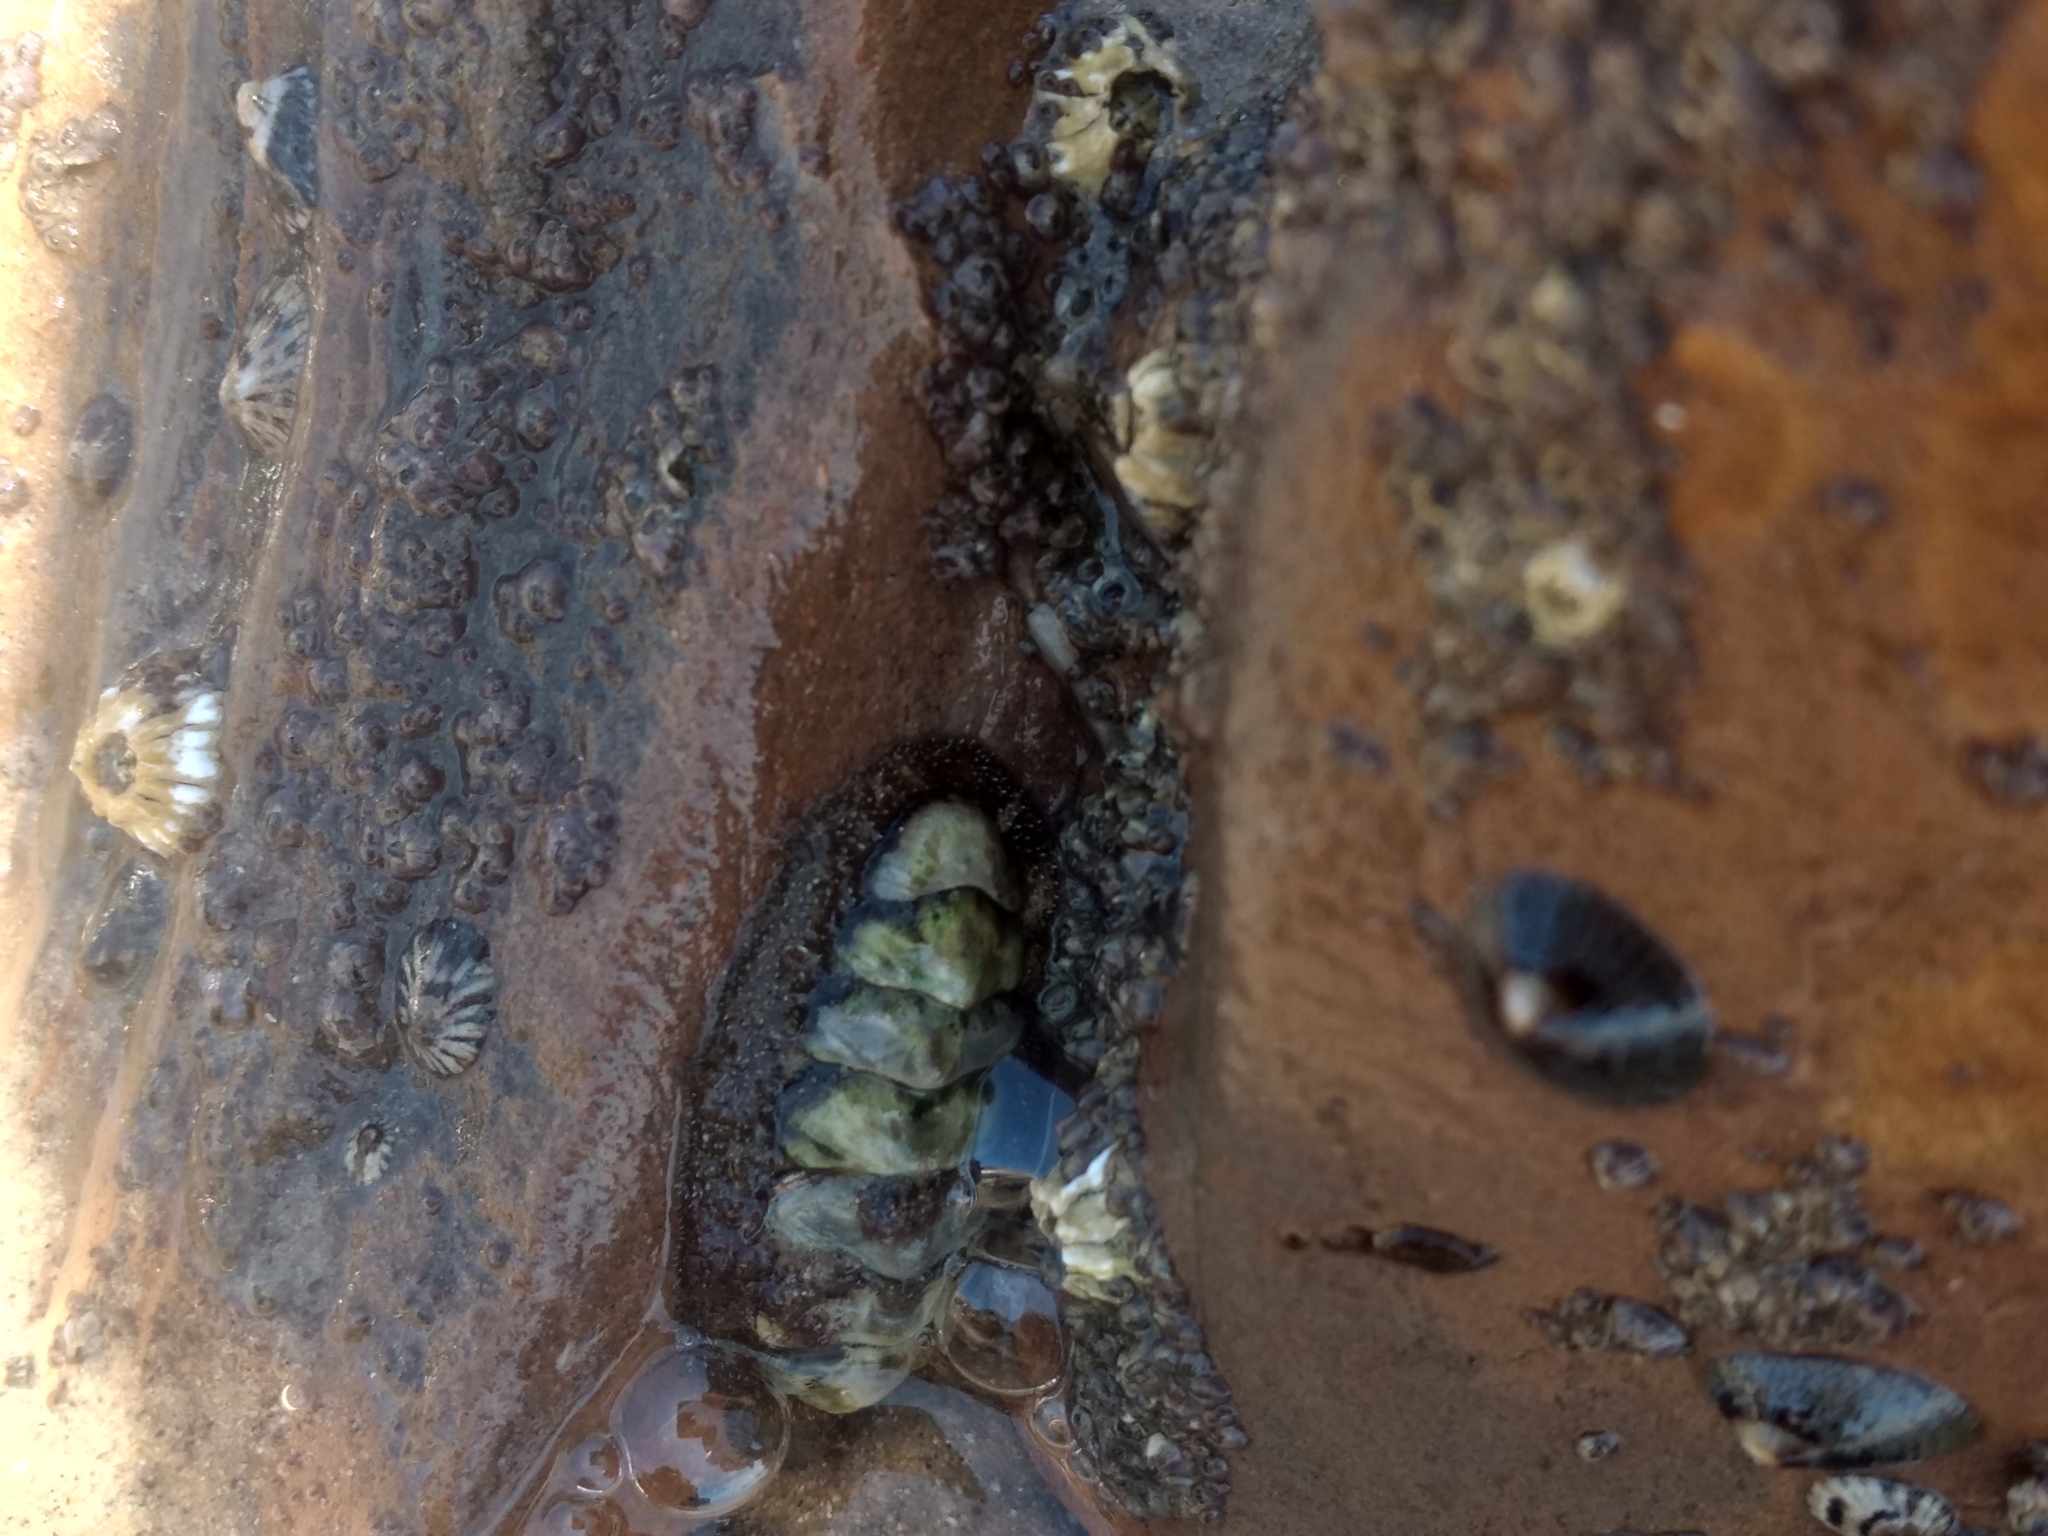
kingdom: Animalia
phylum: Mollusca
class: Polyplacophora
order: Chitonida
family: Tonicellidae
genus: Nuttallina
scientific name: Nuttallina californica
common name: California nuttall chiton
